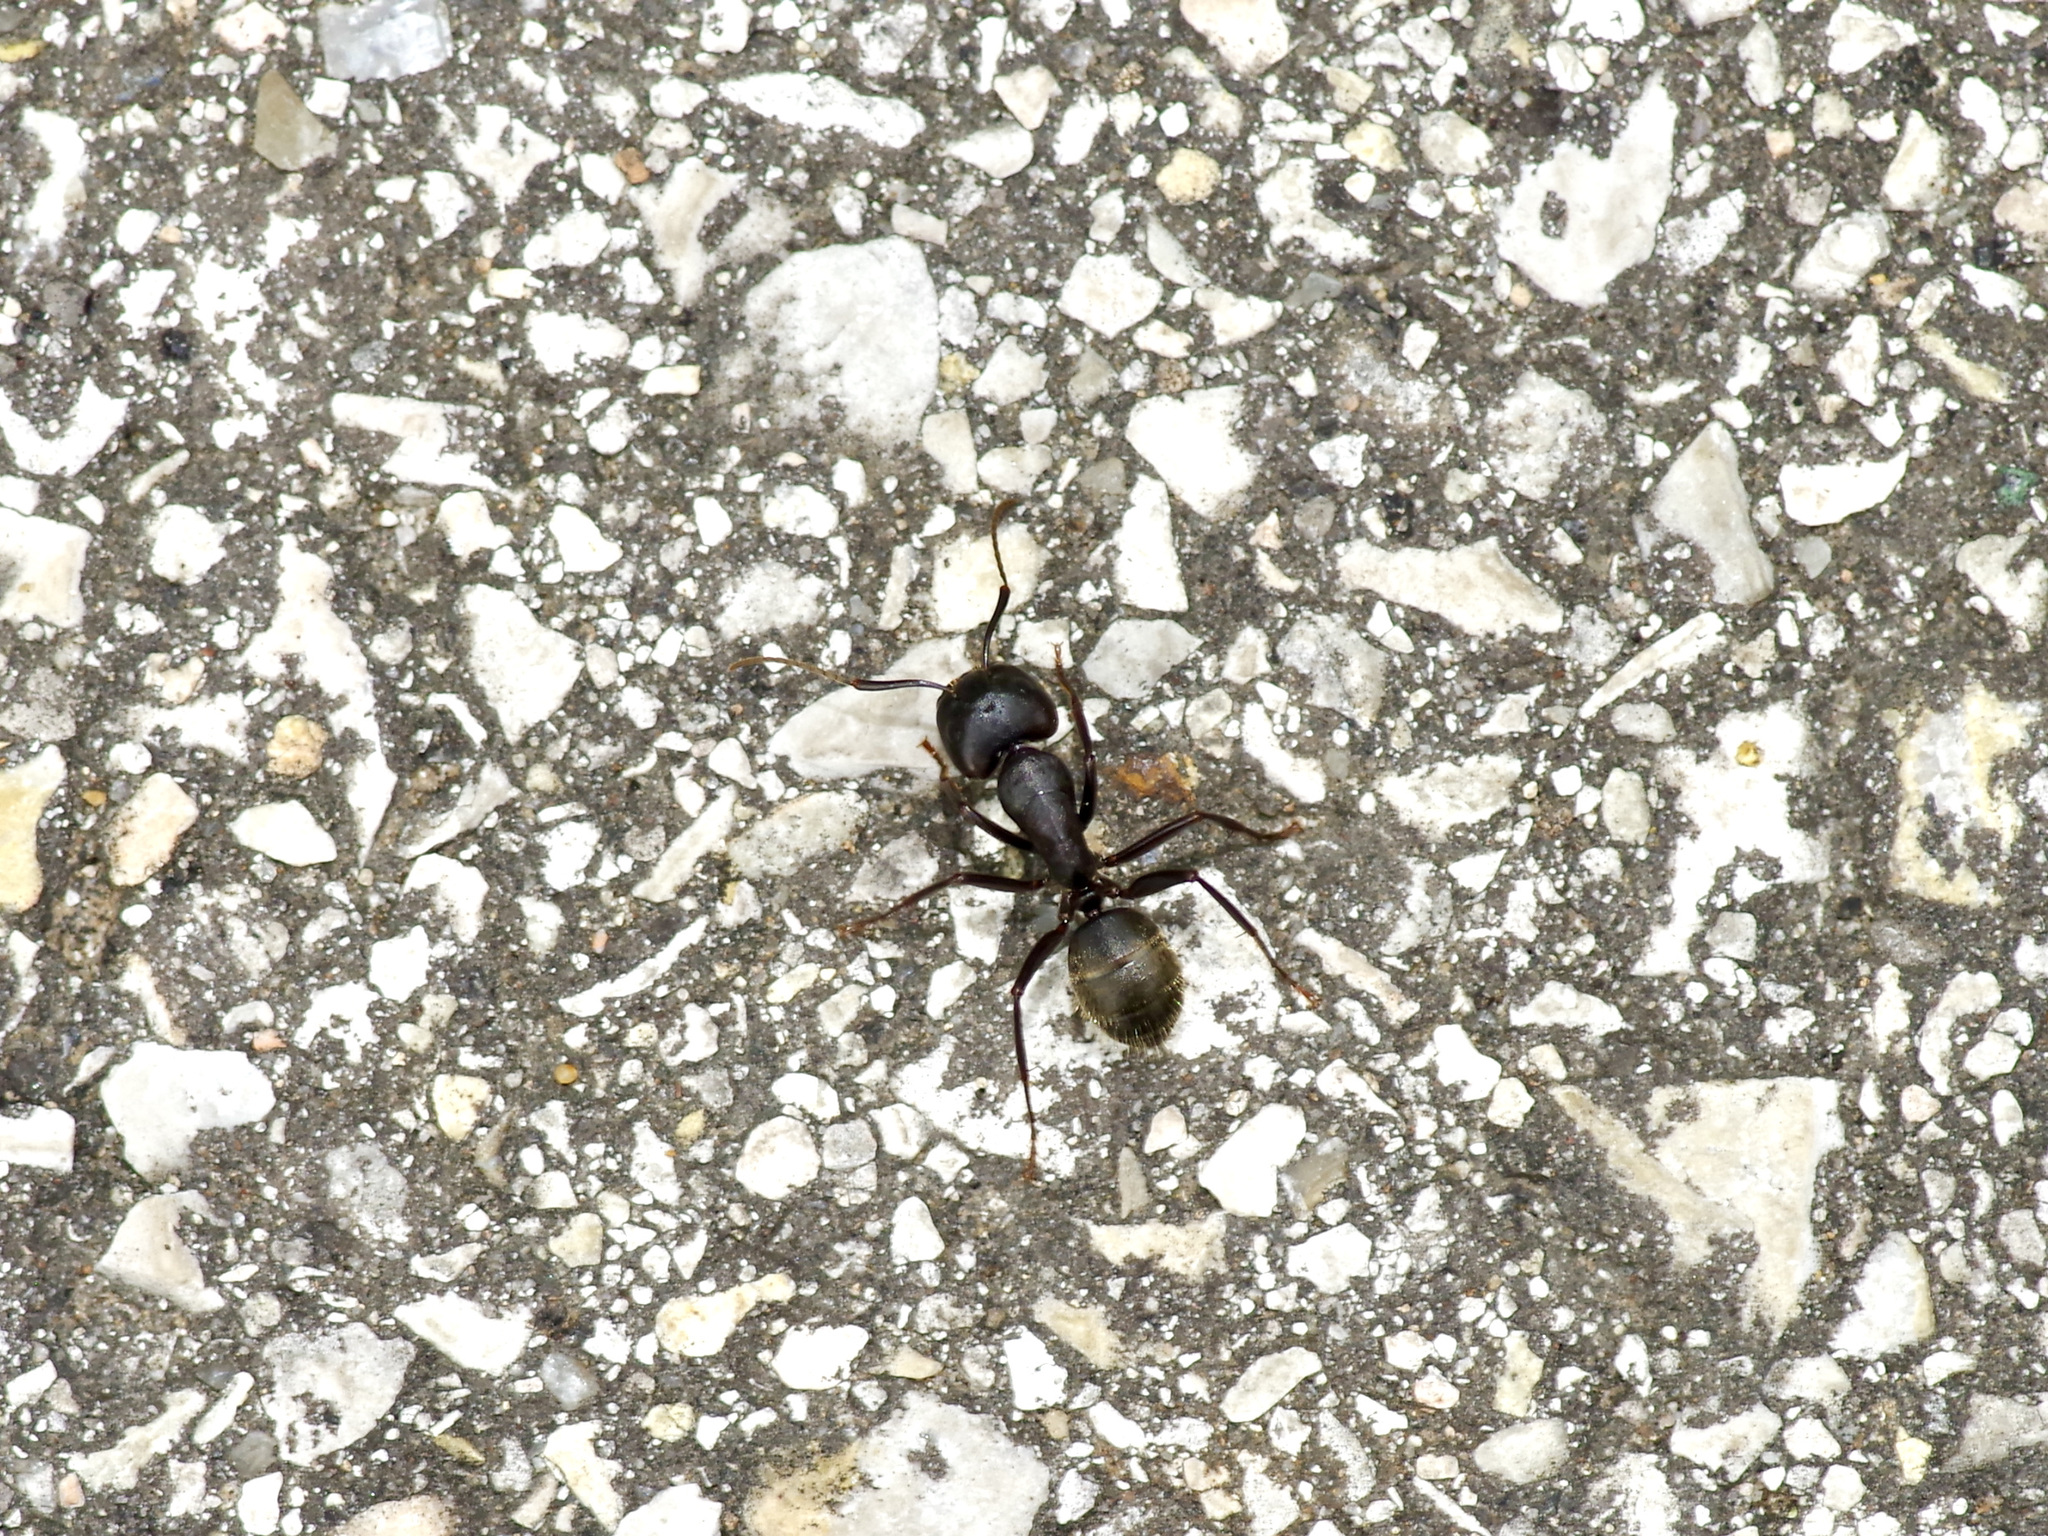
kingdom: Animalia
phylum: Arthropoda
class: Insecta
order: Hymenoptera
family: Formicidae
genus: Camponotus
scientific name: Camponotus pennsylvanicus
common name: Black carpenter ant
